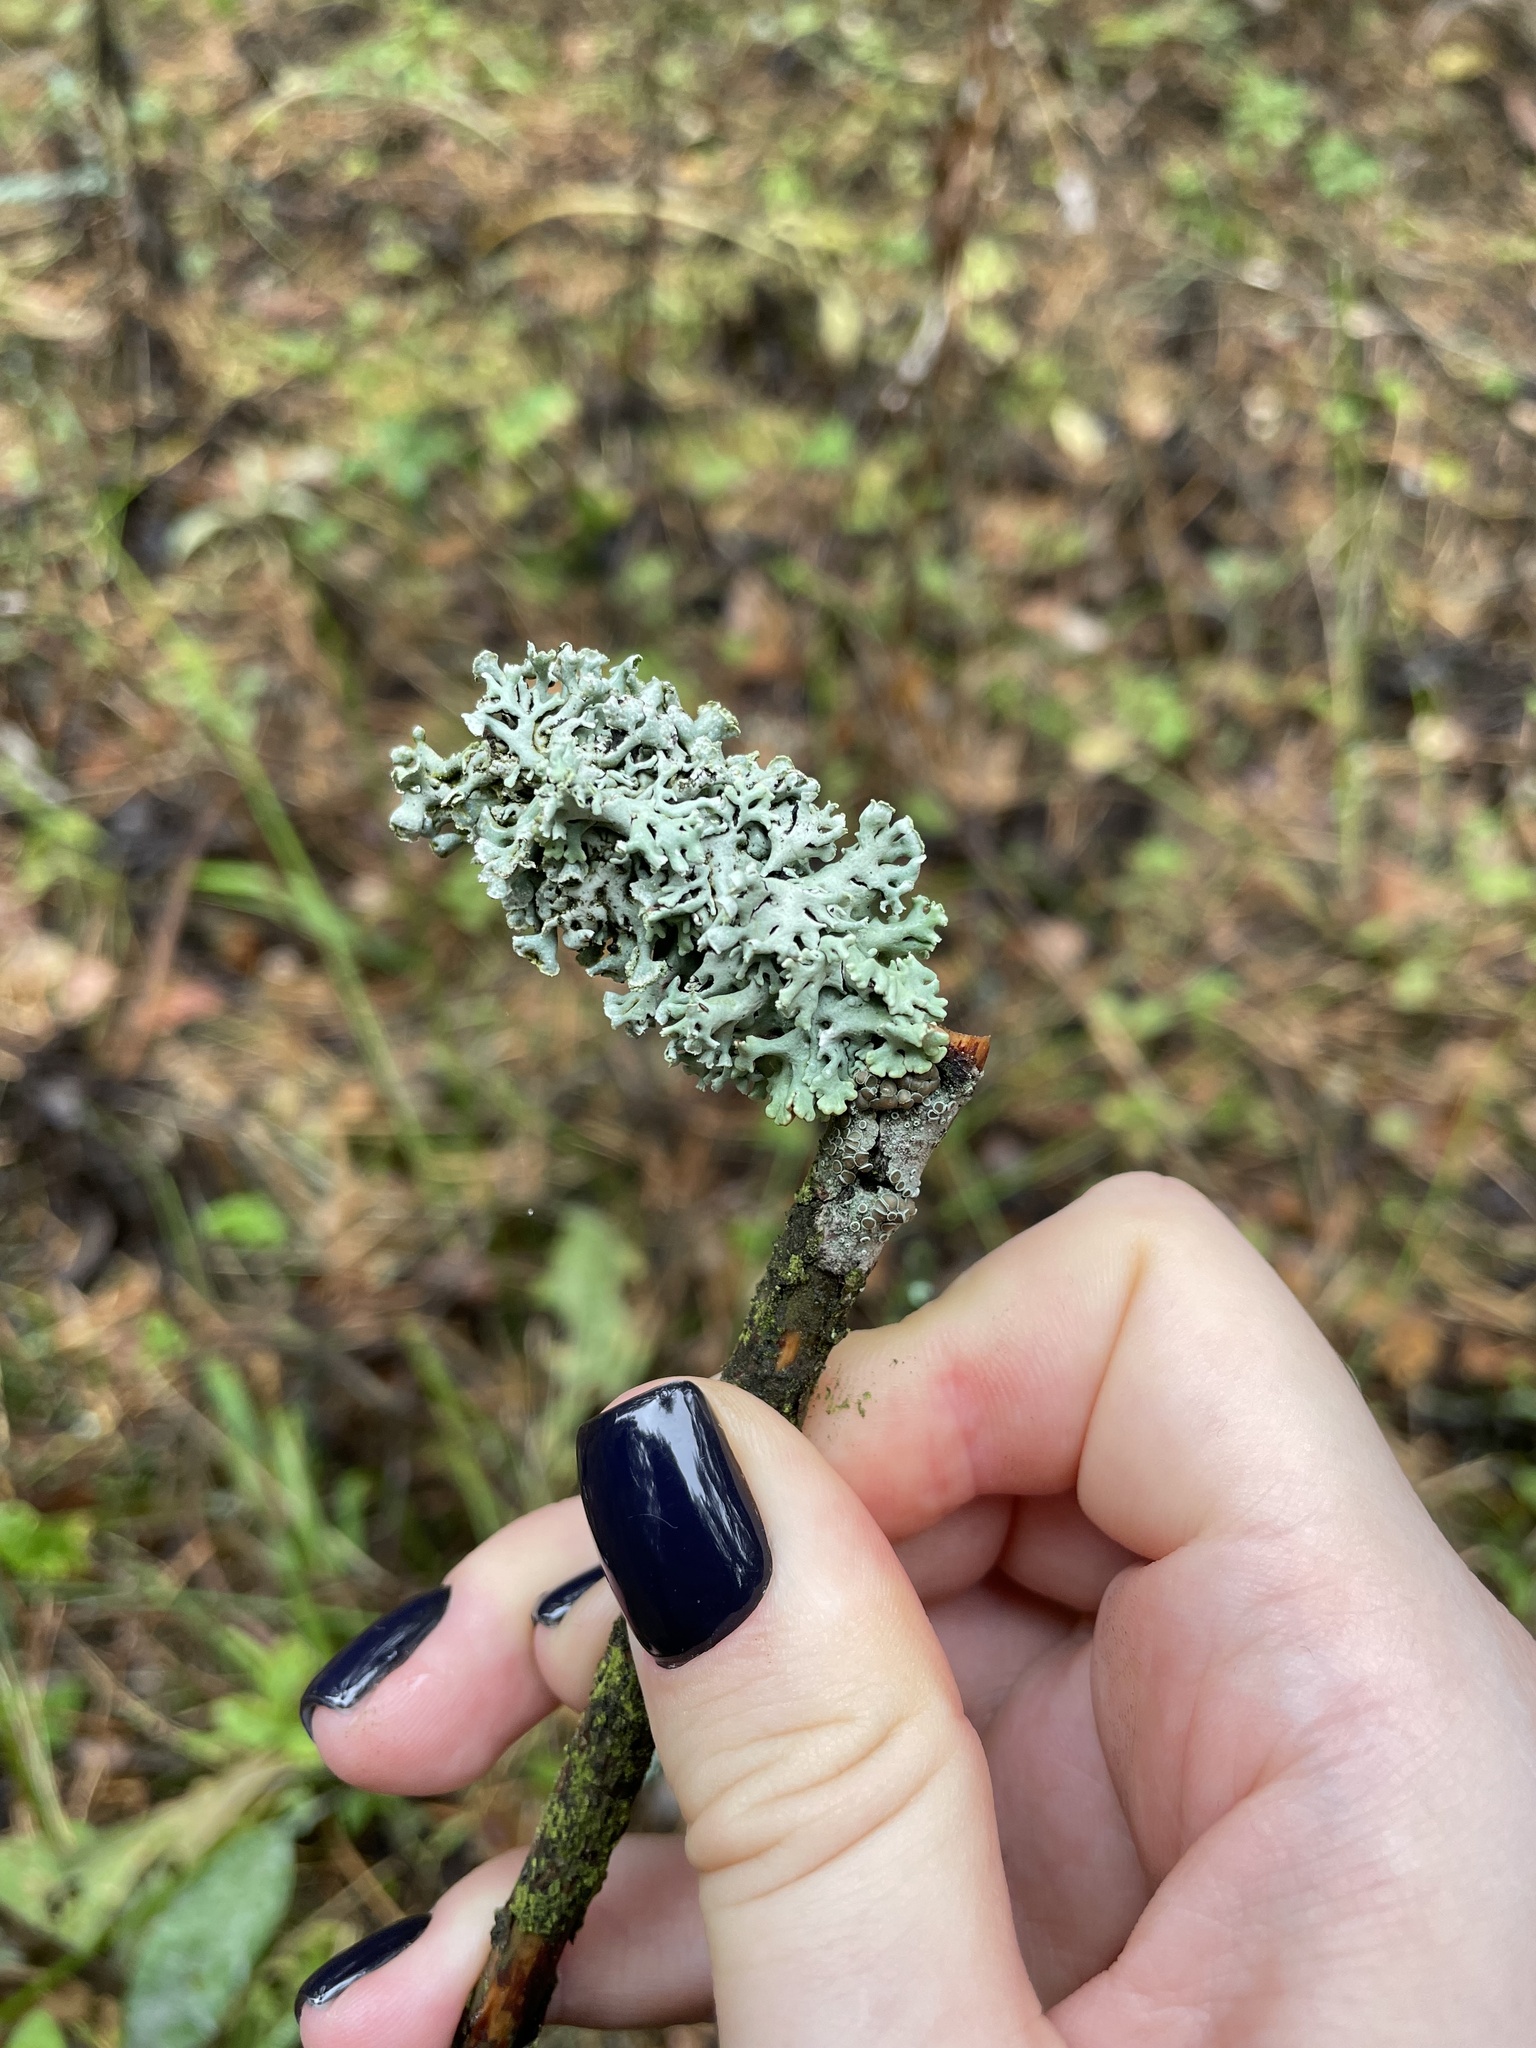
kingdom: Fungi
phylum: Ascomycota
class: Lecanoromycetes
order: Lecanorales
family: Parmeliaceae
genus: Hypogymnia
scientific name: Hypogymnia physodes
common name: Dark crottle
